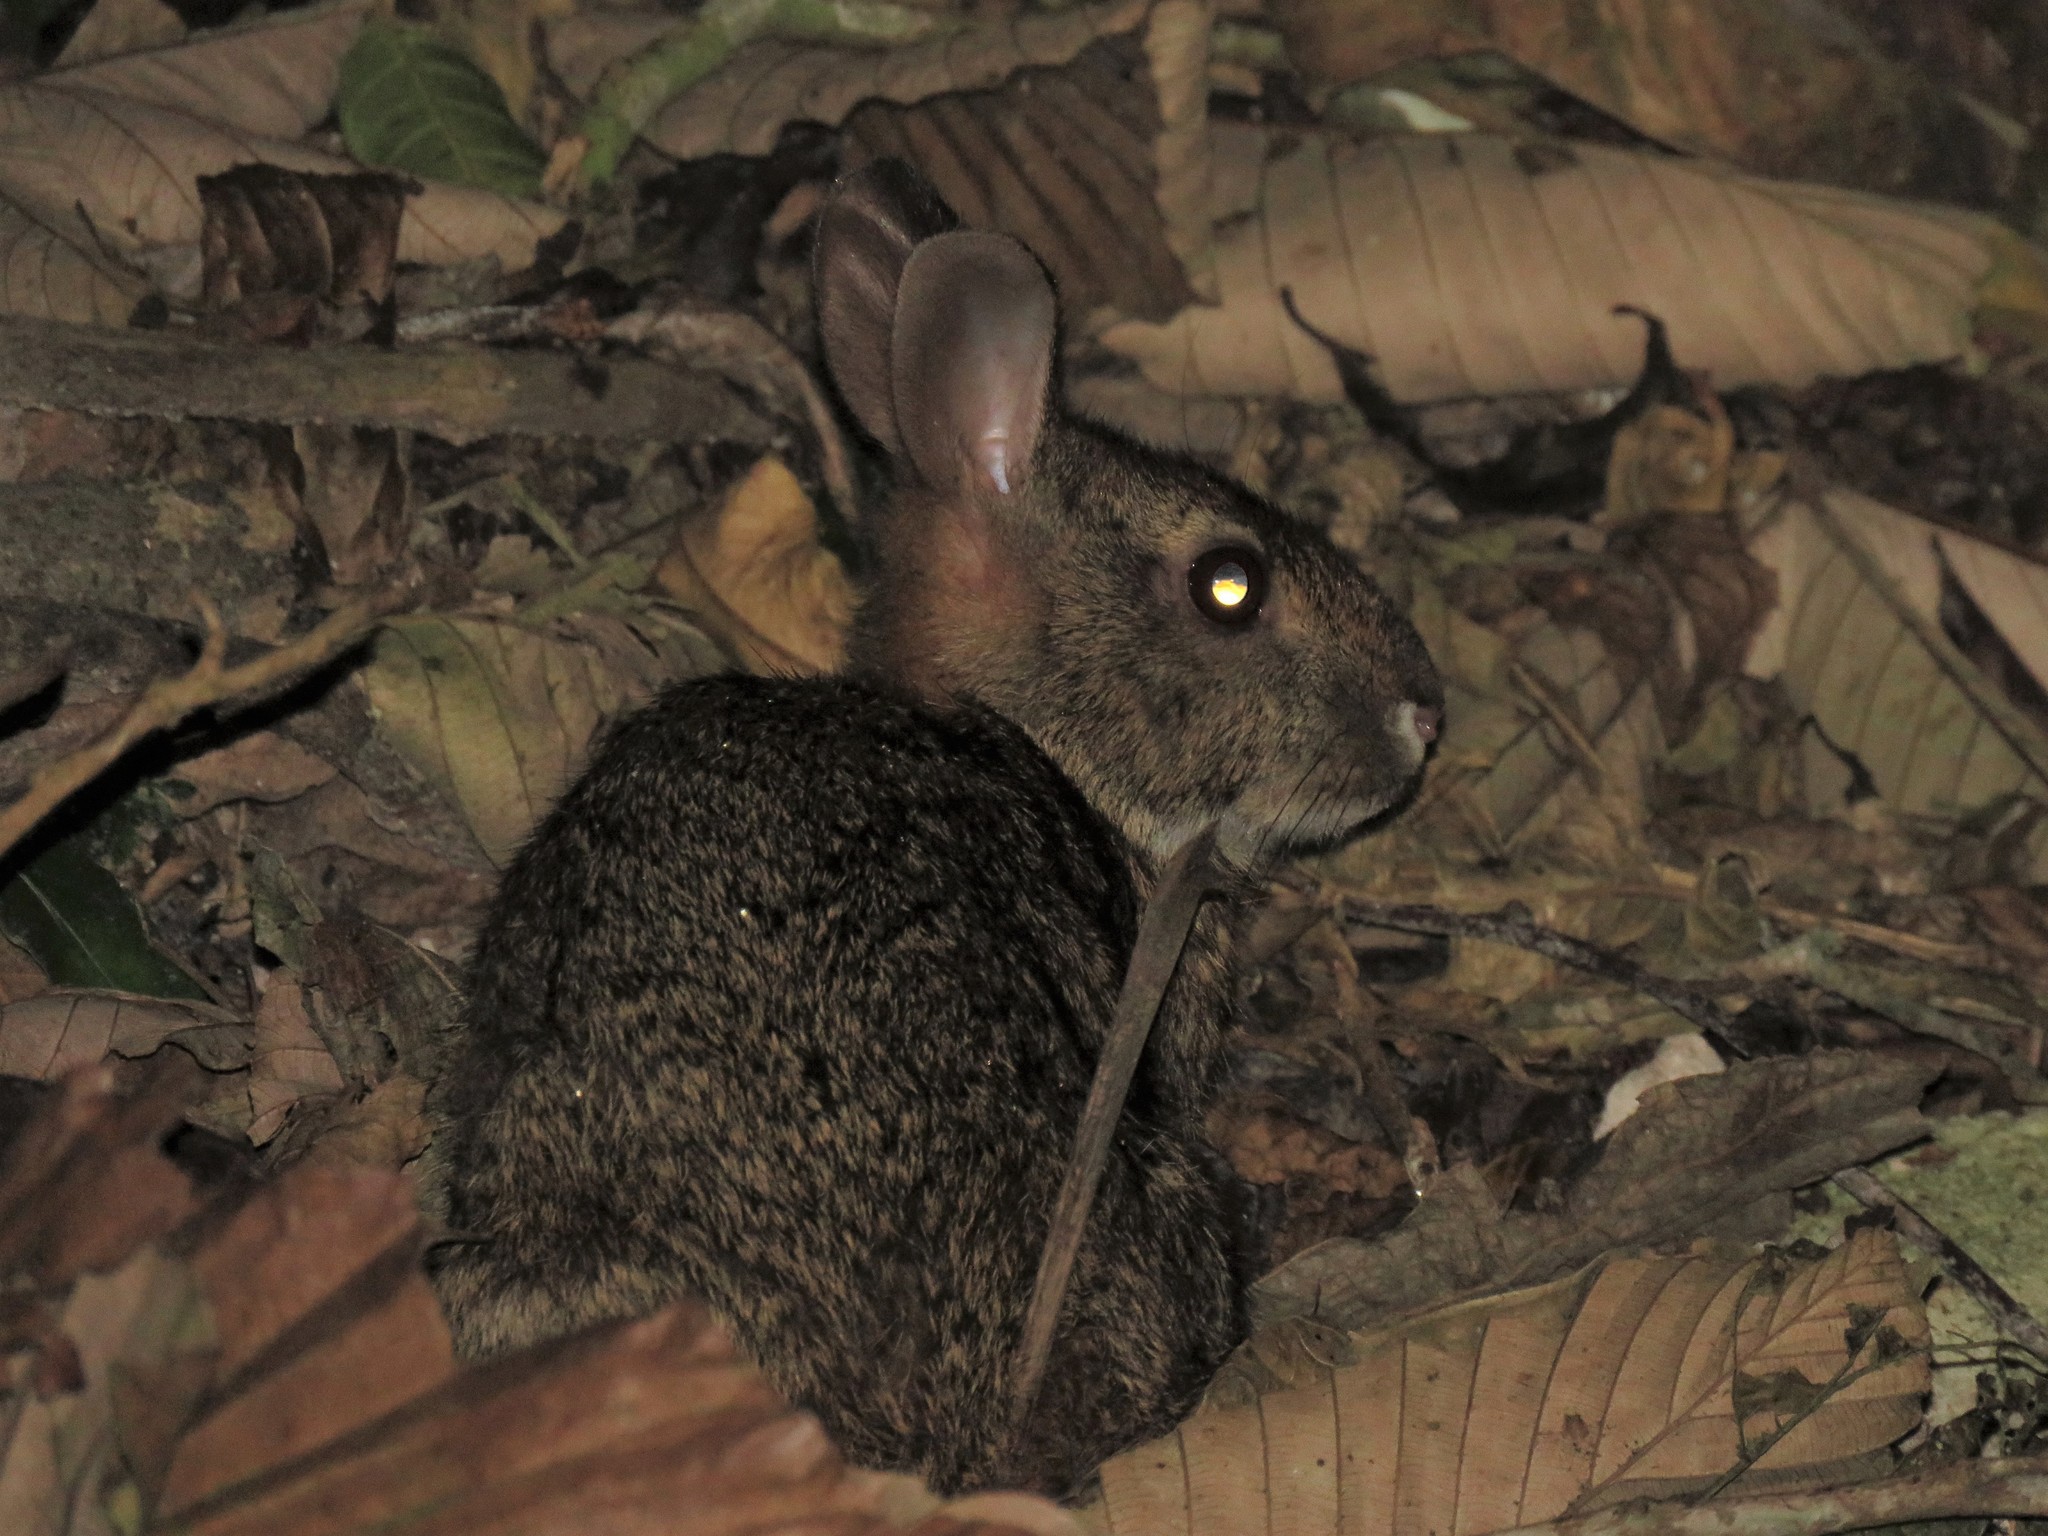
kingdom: Animalia
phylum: Chordata
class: Mammalia
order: Lagomorpha
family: Leporidae
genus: Sylvilagus
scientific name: Sylvilagus gabbi
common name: Gabb's cottontail
